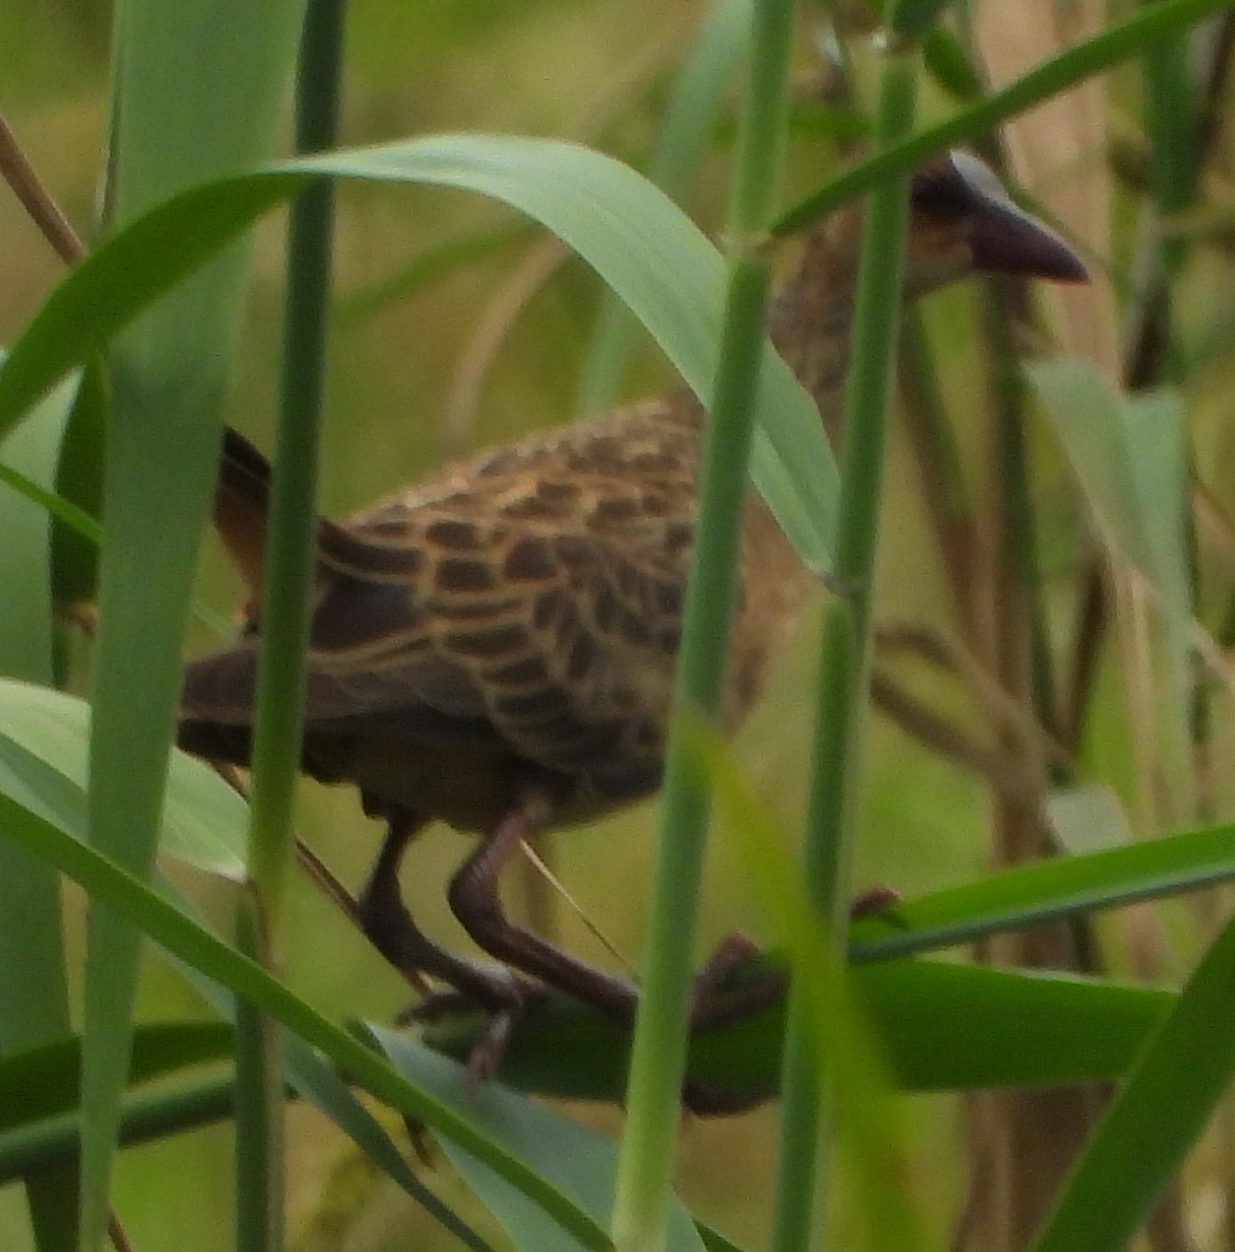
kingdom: Animalia
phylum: Chordata
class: Aves
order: Gruiformes
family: Rallidae
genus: Porphyrio
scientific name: Porphyrio alleni
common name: Allen's gallinule
